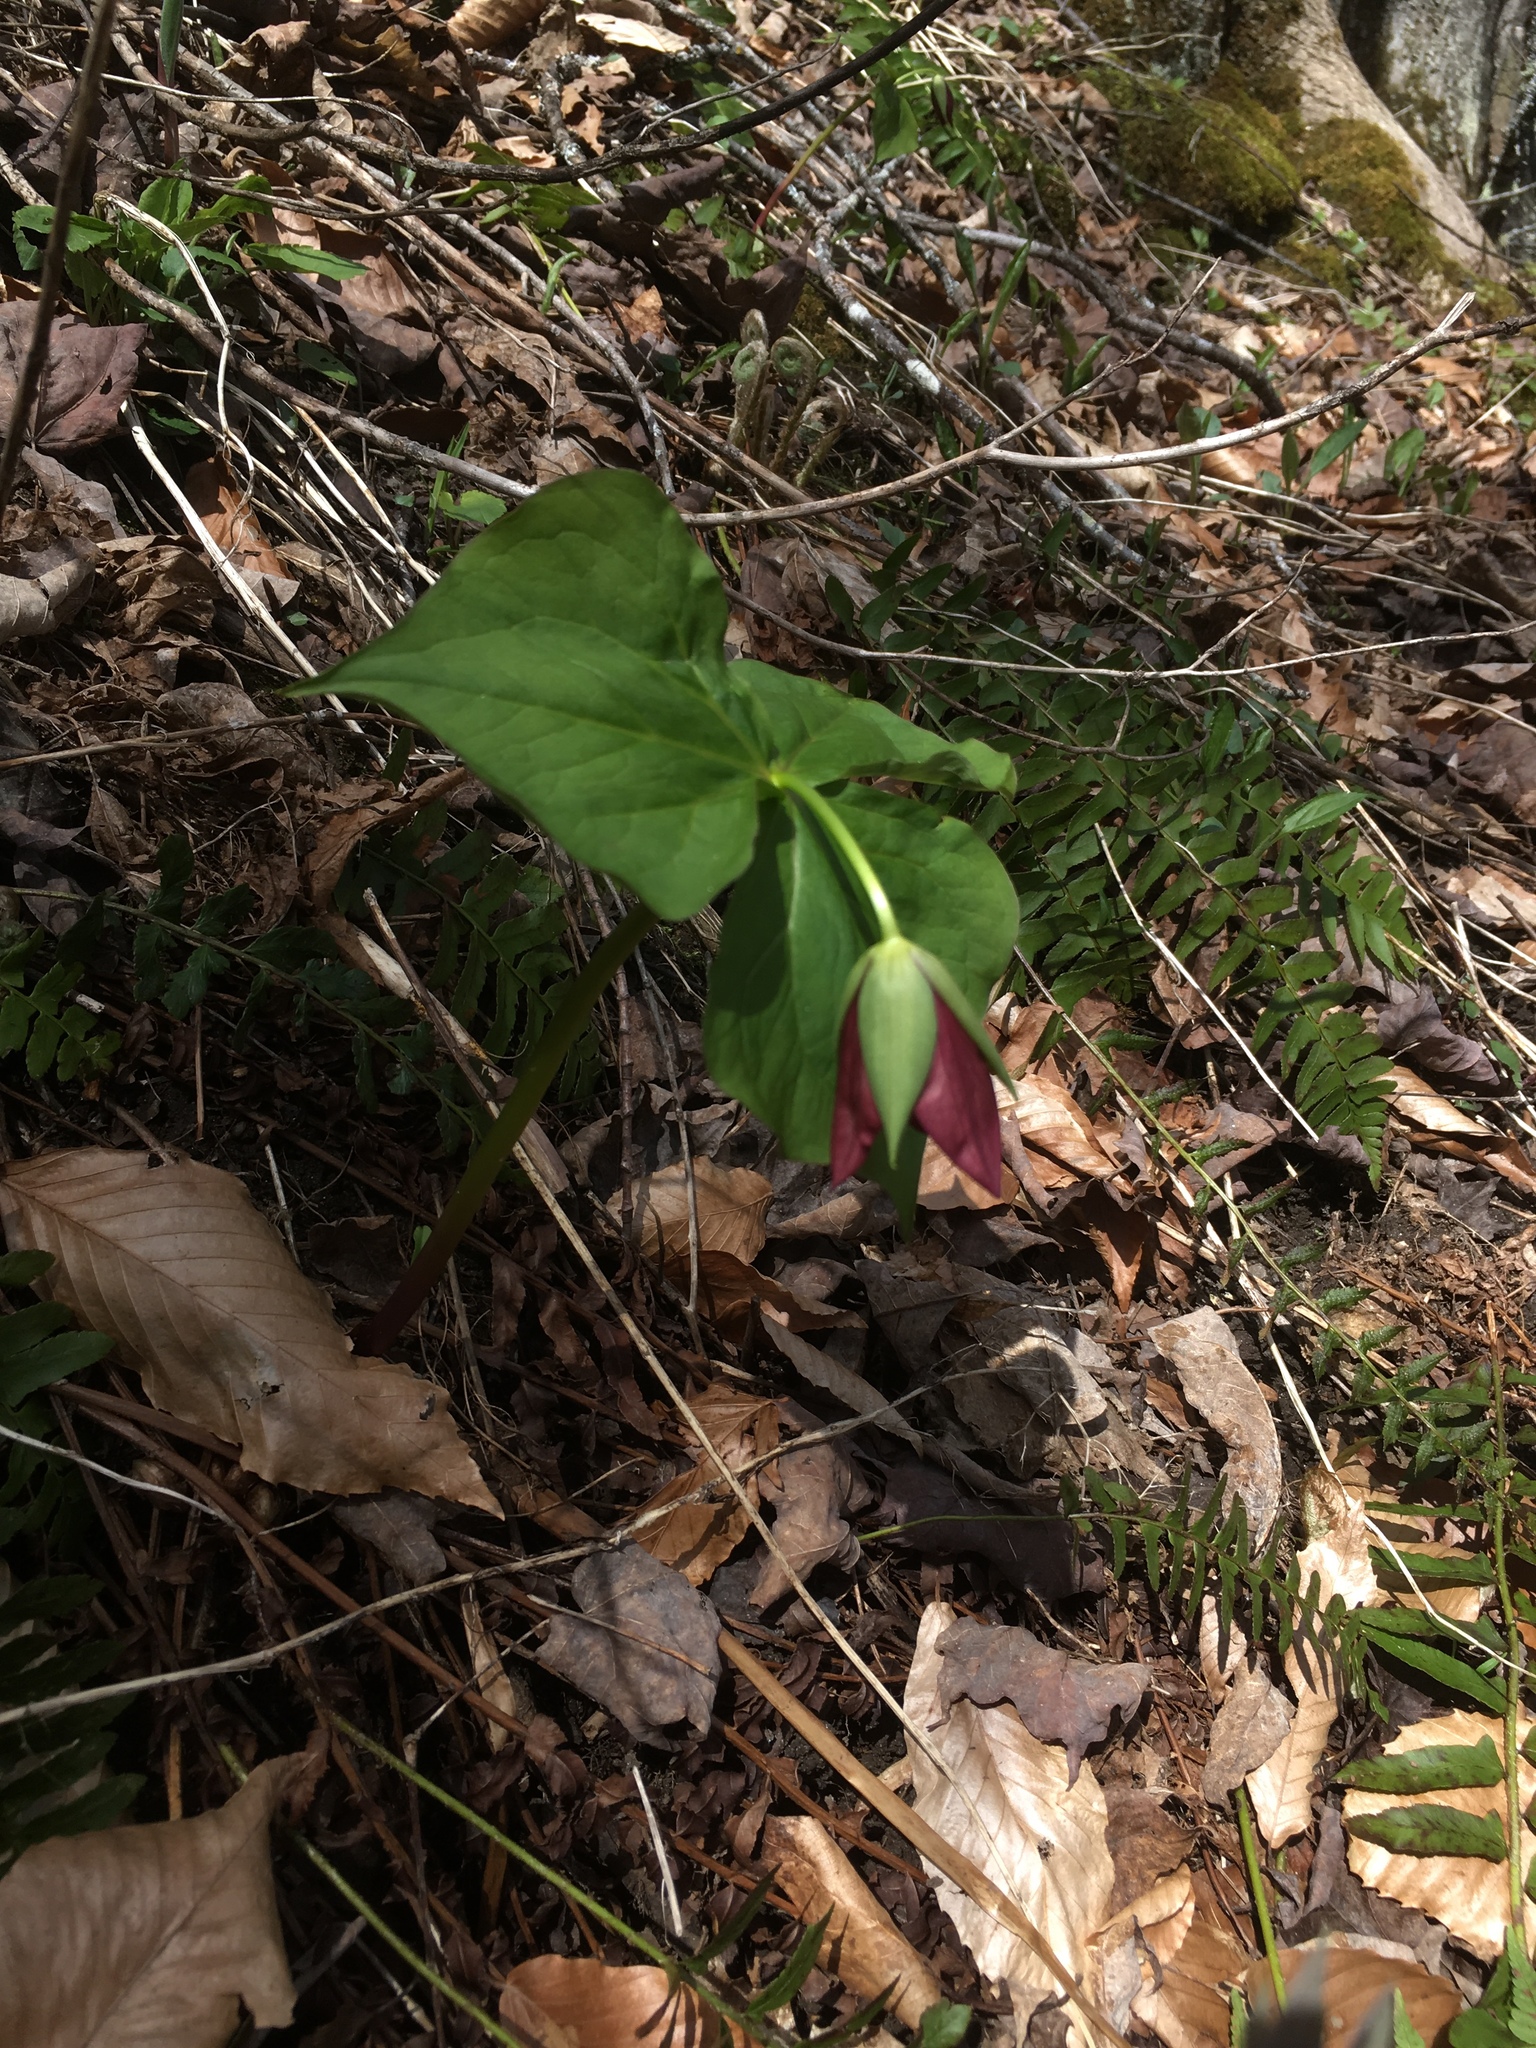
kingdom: Plantae
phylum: Tracheophyta
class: Liliopsida
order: Liliales
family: Melanthiaceae
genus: Trillium
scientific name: Trillium erectum
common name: Purple trillium
